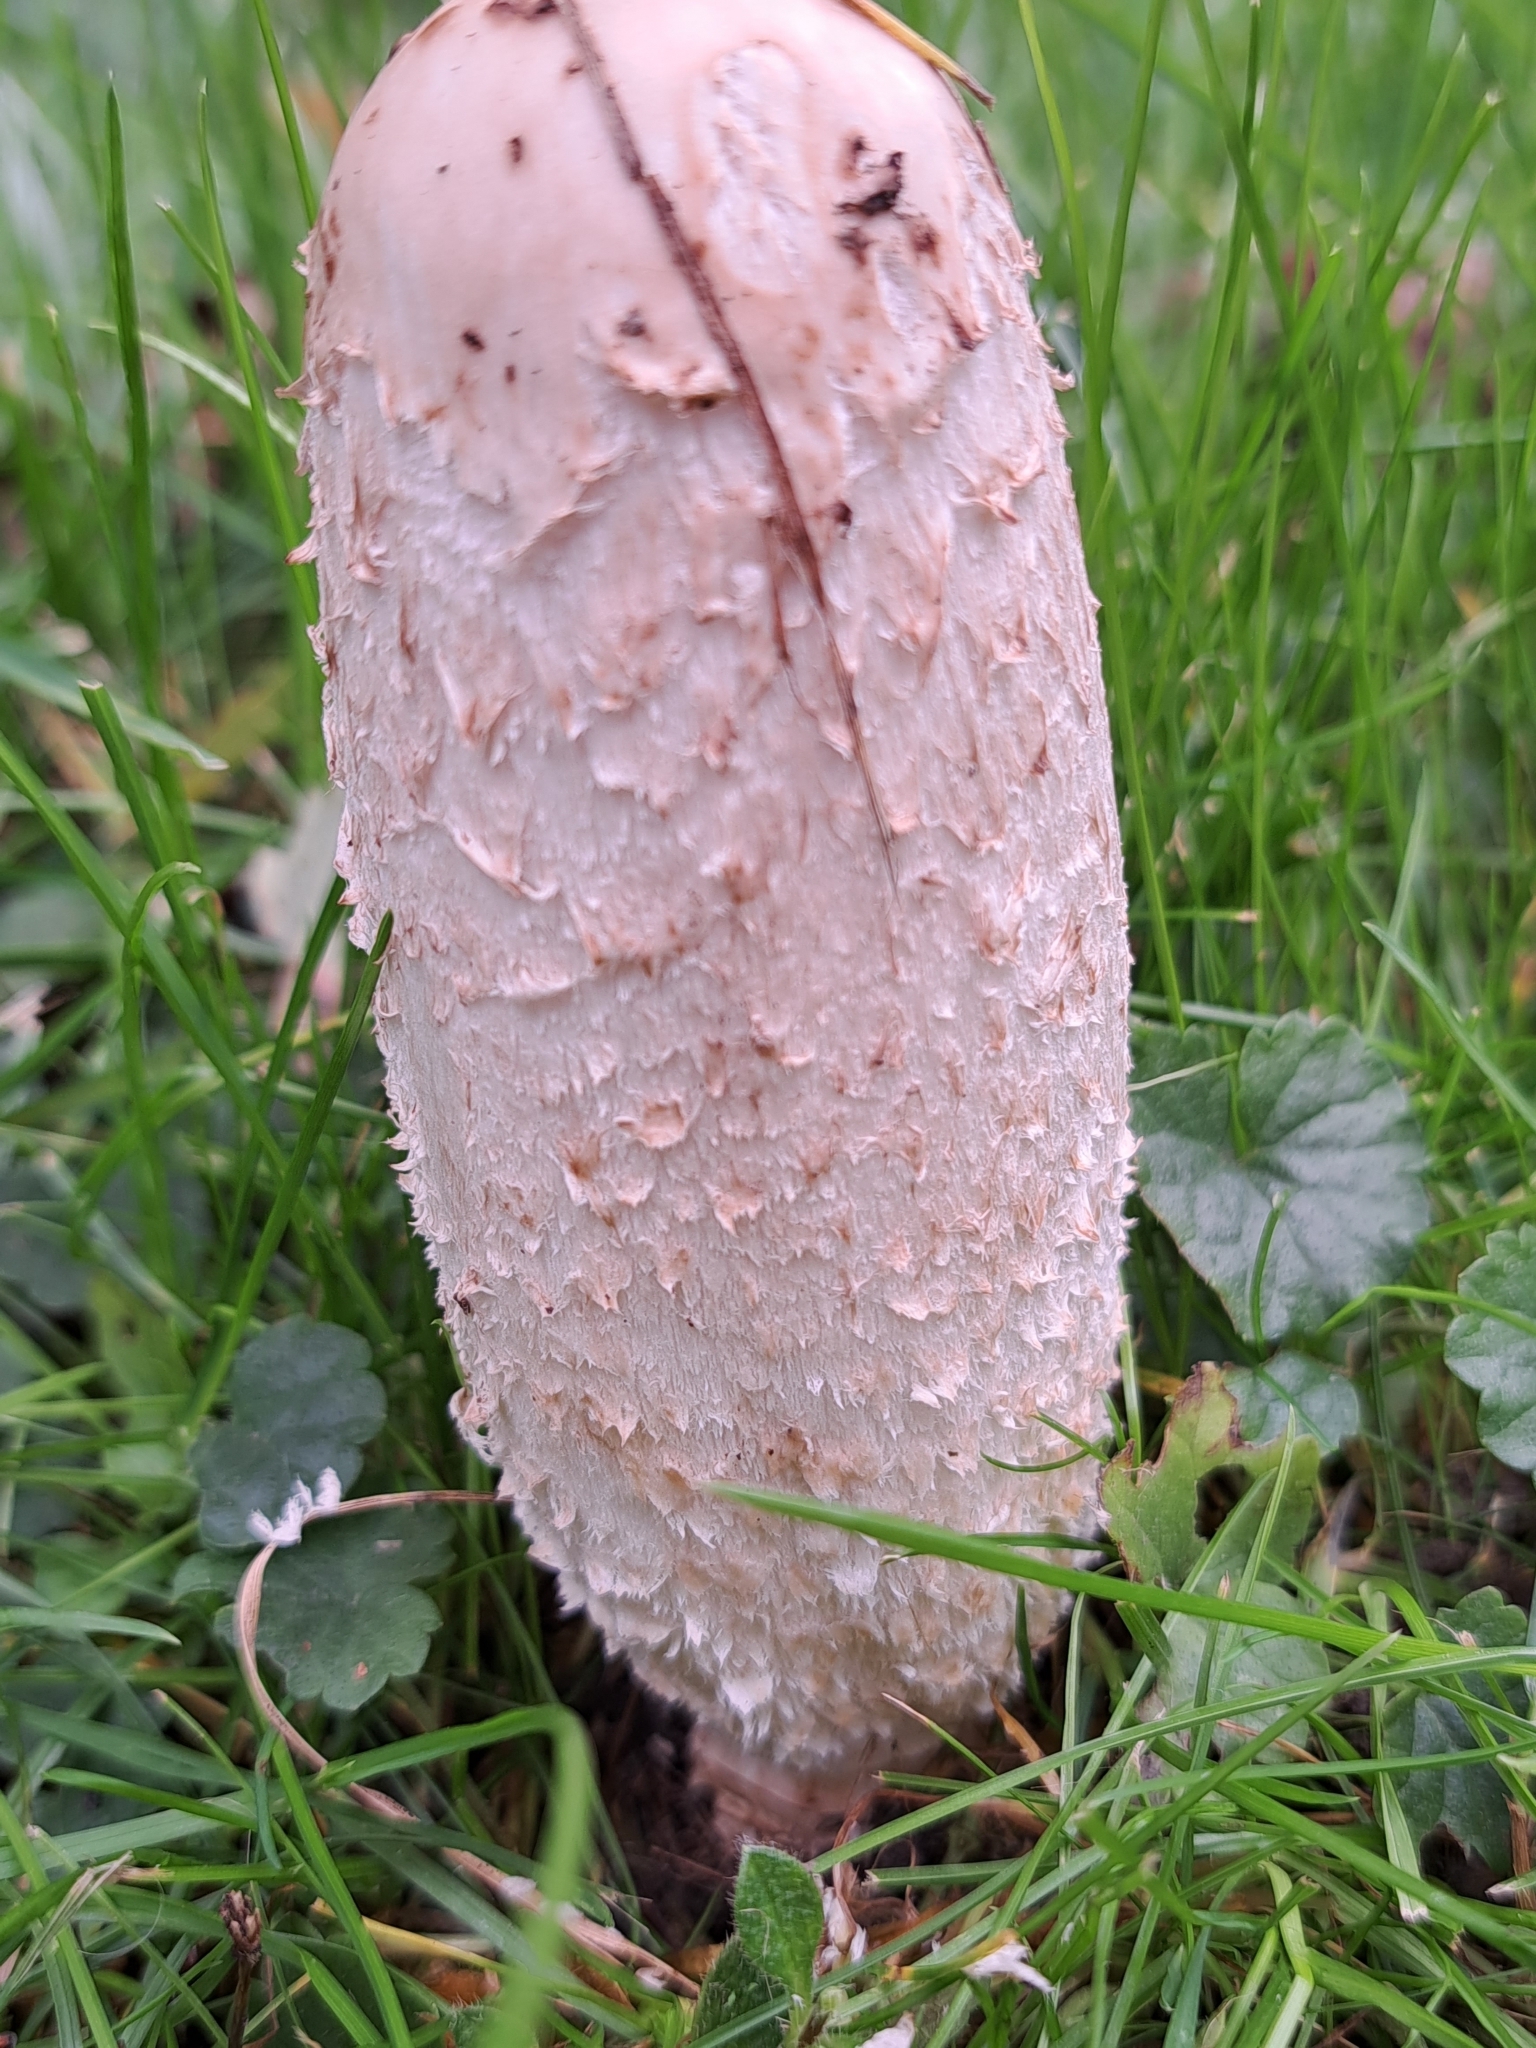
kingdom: Fungi
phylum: Basidiomycota
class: Agaricomycetes
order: Agaricales
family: Agaricaceae
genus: Coprinus
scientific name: Coprinus comatus
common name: Lawyer's wig
